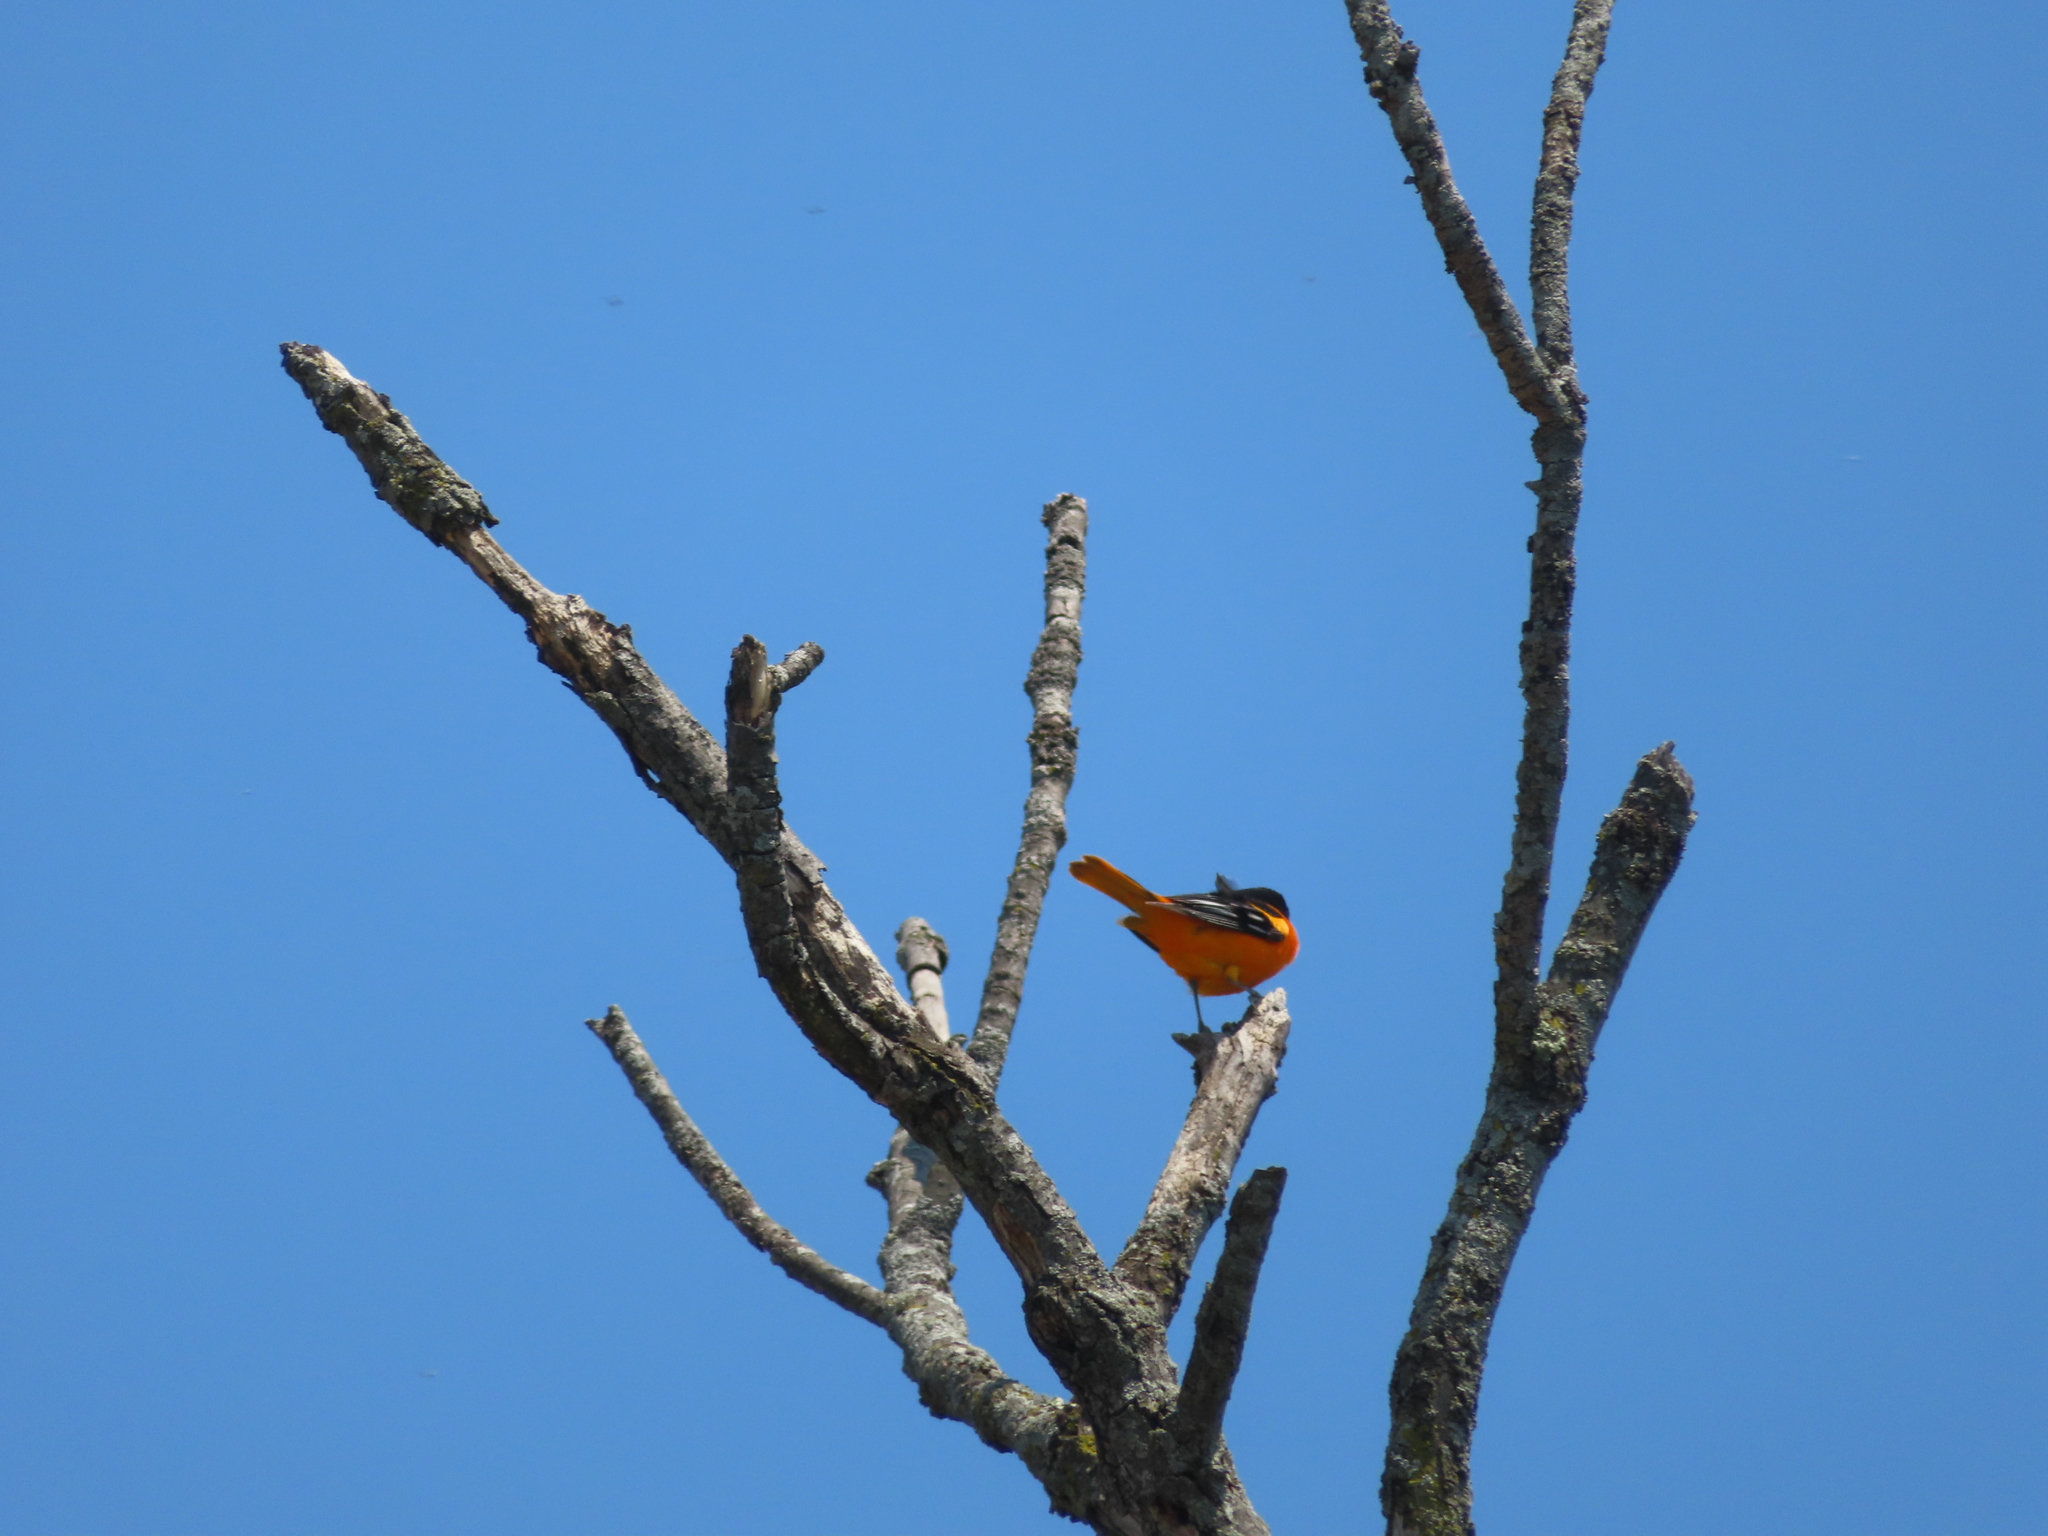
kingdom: Animalia
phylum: Chordata
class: Aves
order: Passeriformes
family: Icteridae
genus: Icterus
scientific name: Icterus galbula
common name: Baltimore oriole
